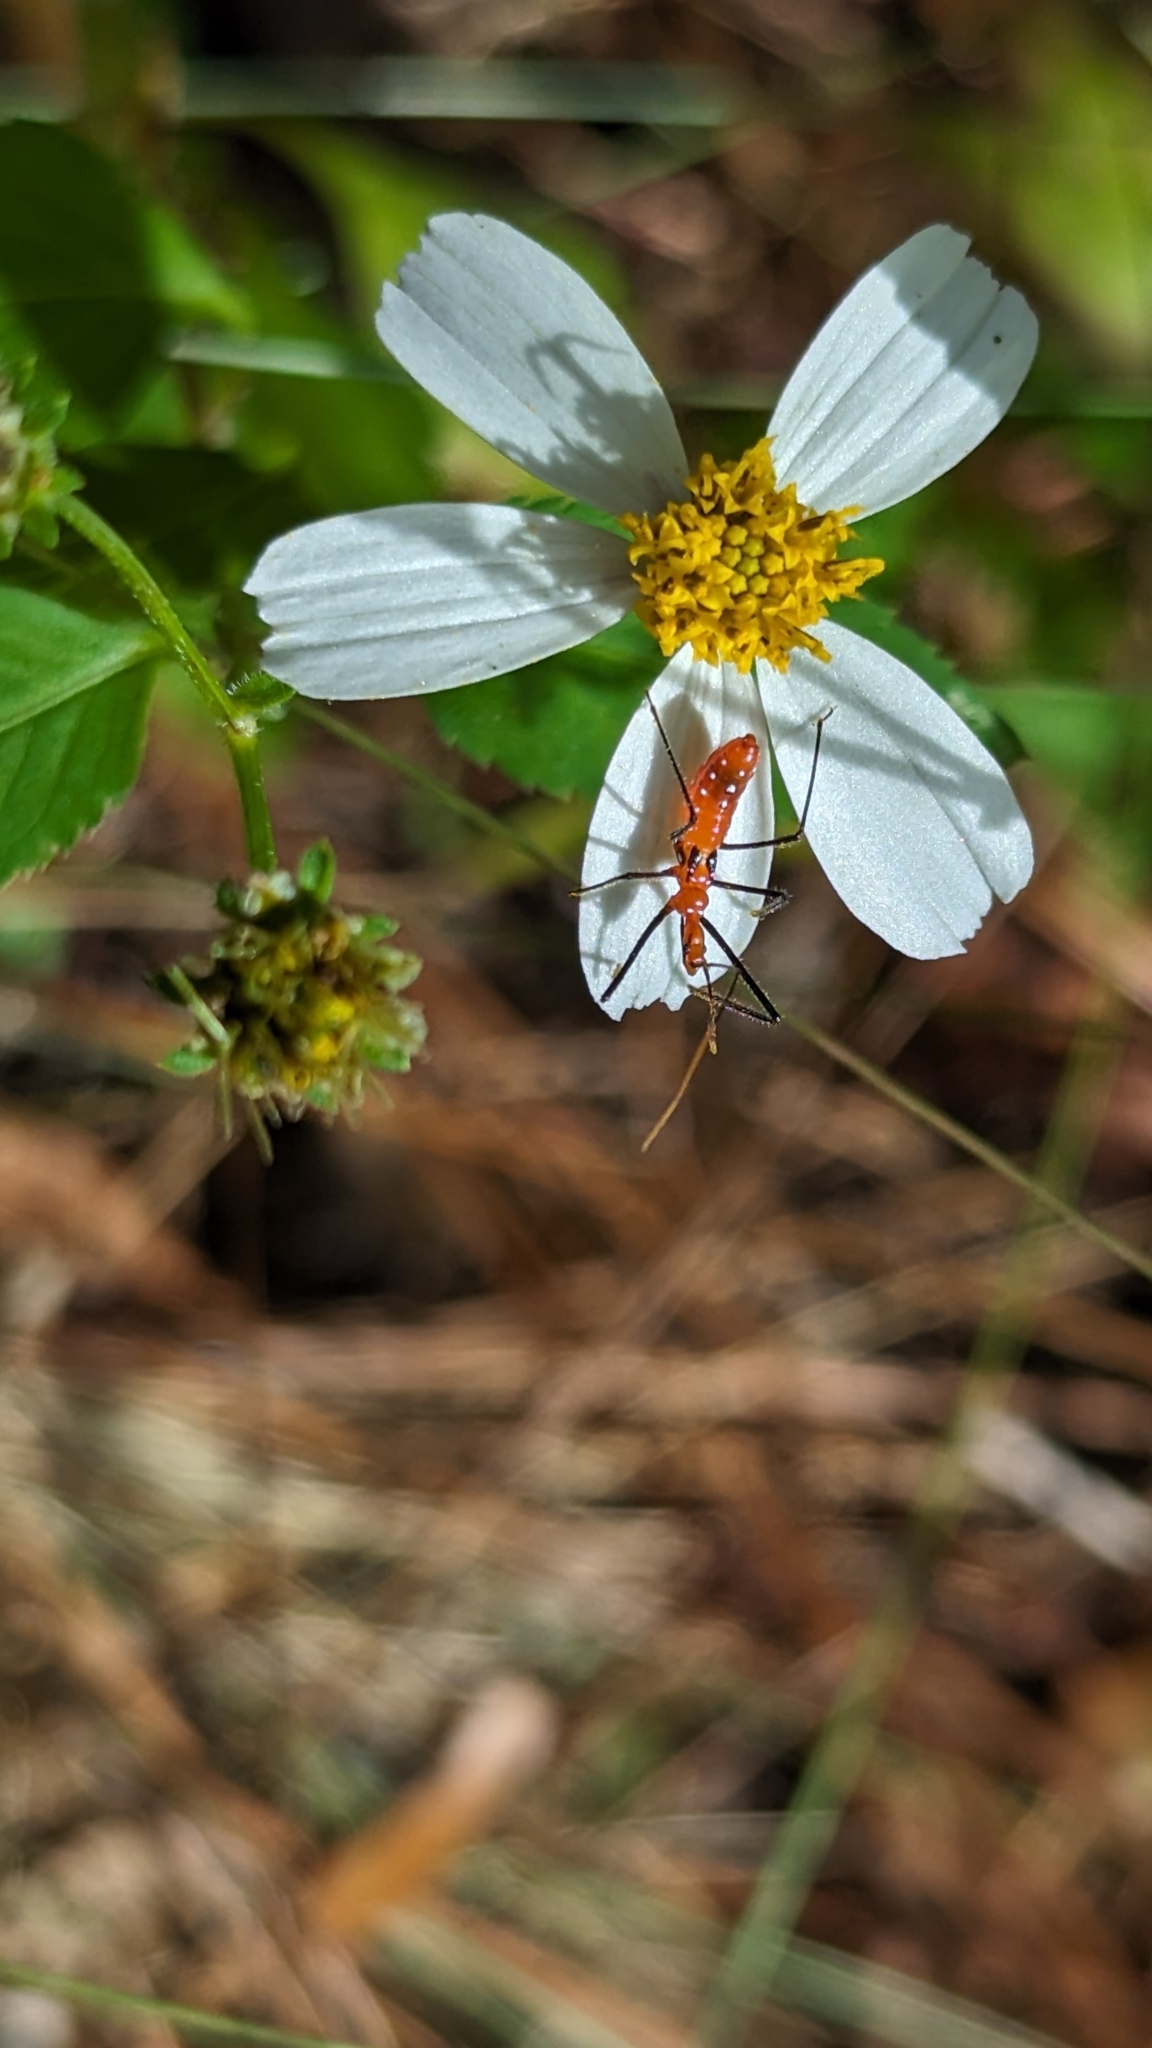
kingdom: Animalia
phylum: Arthropoda
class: Insecta
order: Hemiptera
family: Reduviidae
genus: Zelus
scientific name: Zelus longipes
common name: Milkweed assassin bug
